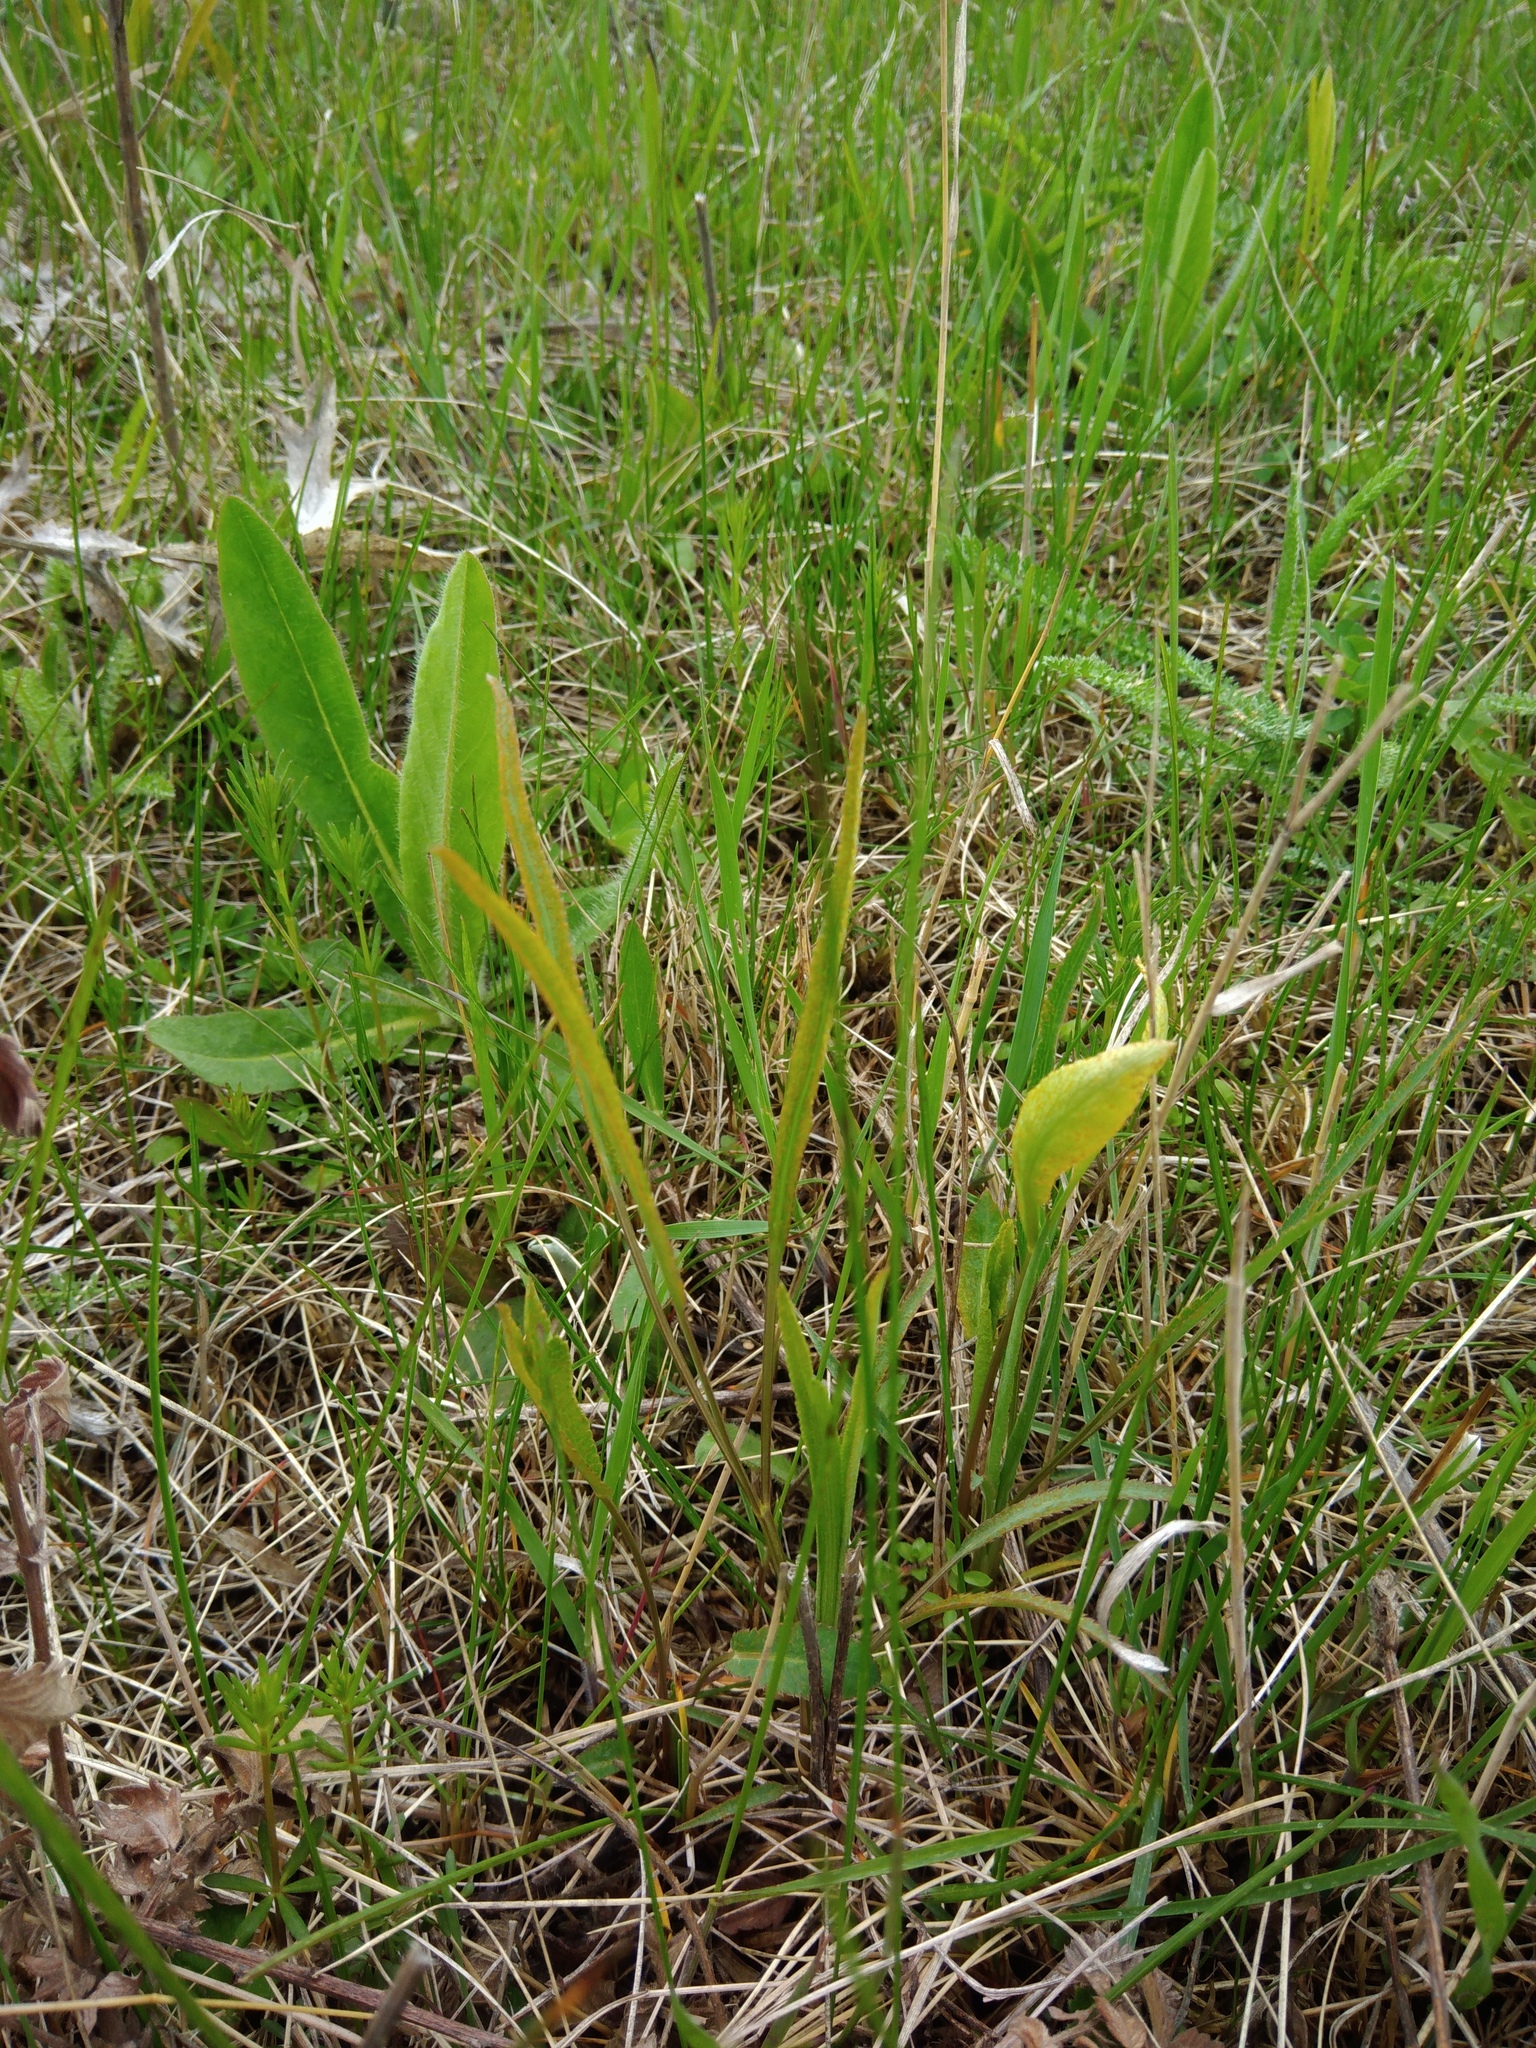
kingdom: Plantae
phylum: Tracheophyta
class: Magnoliopsida
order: Apiales
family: Apiaceae
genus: Falcaria
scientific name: Falcaria vulgaris
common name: Longleaf
